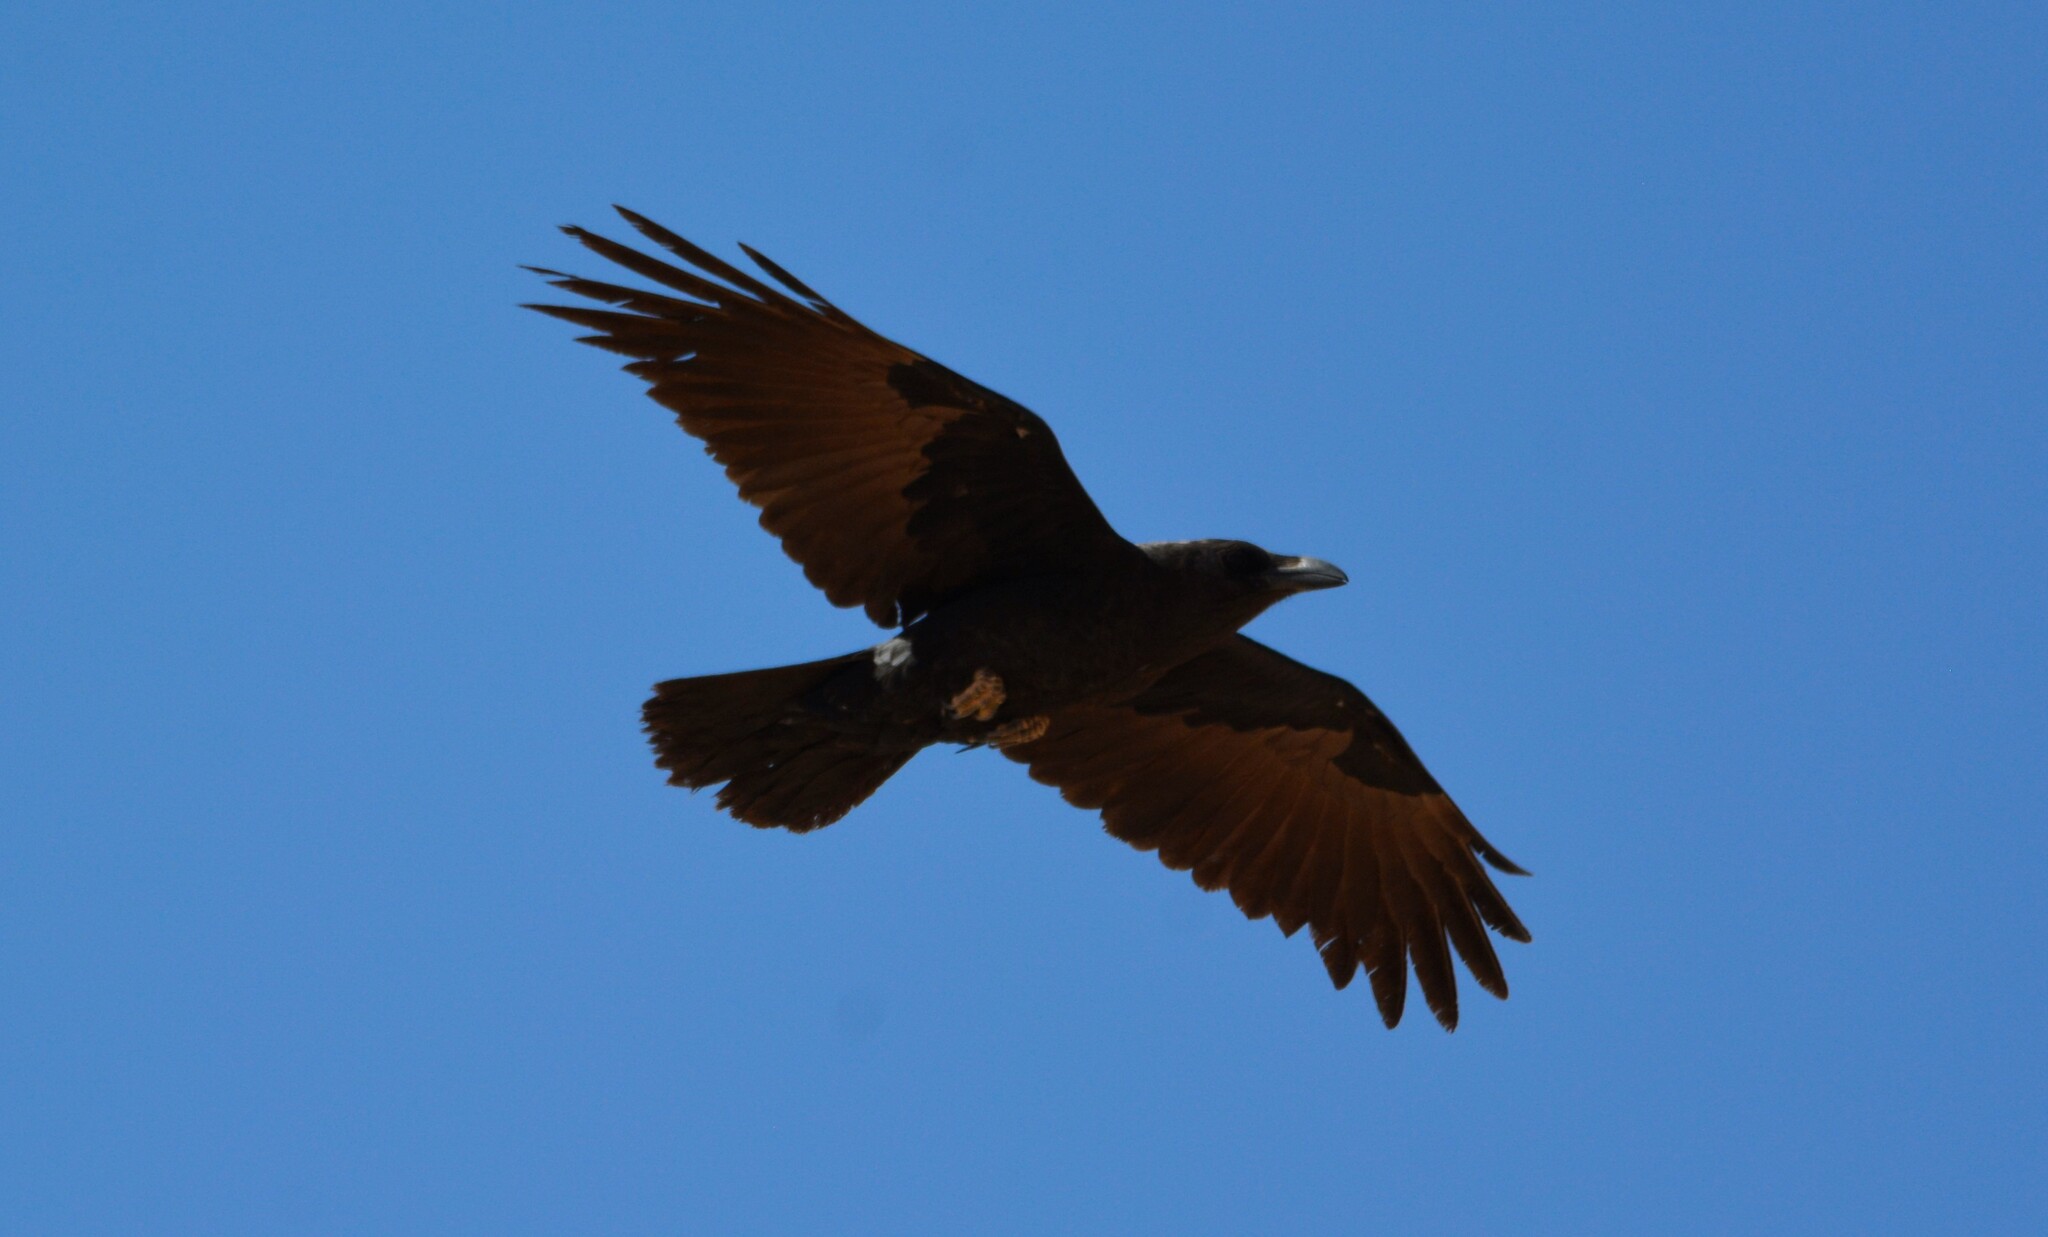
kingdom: Animalia
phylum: Chordata
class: Aves
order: Passeriformes
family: Corvidae
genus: Corvus
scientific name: Corvus ruficollis
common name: Brown-necked raven
